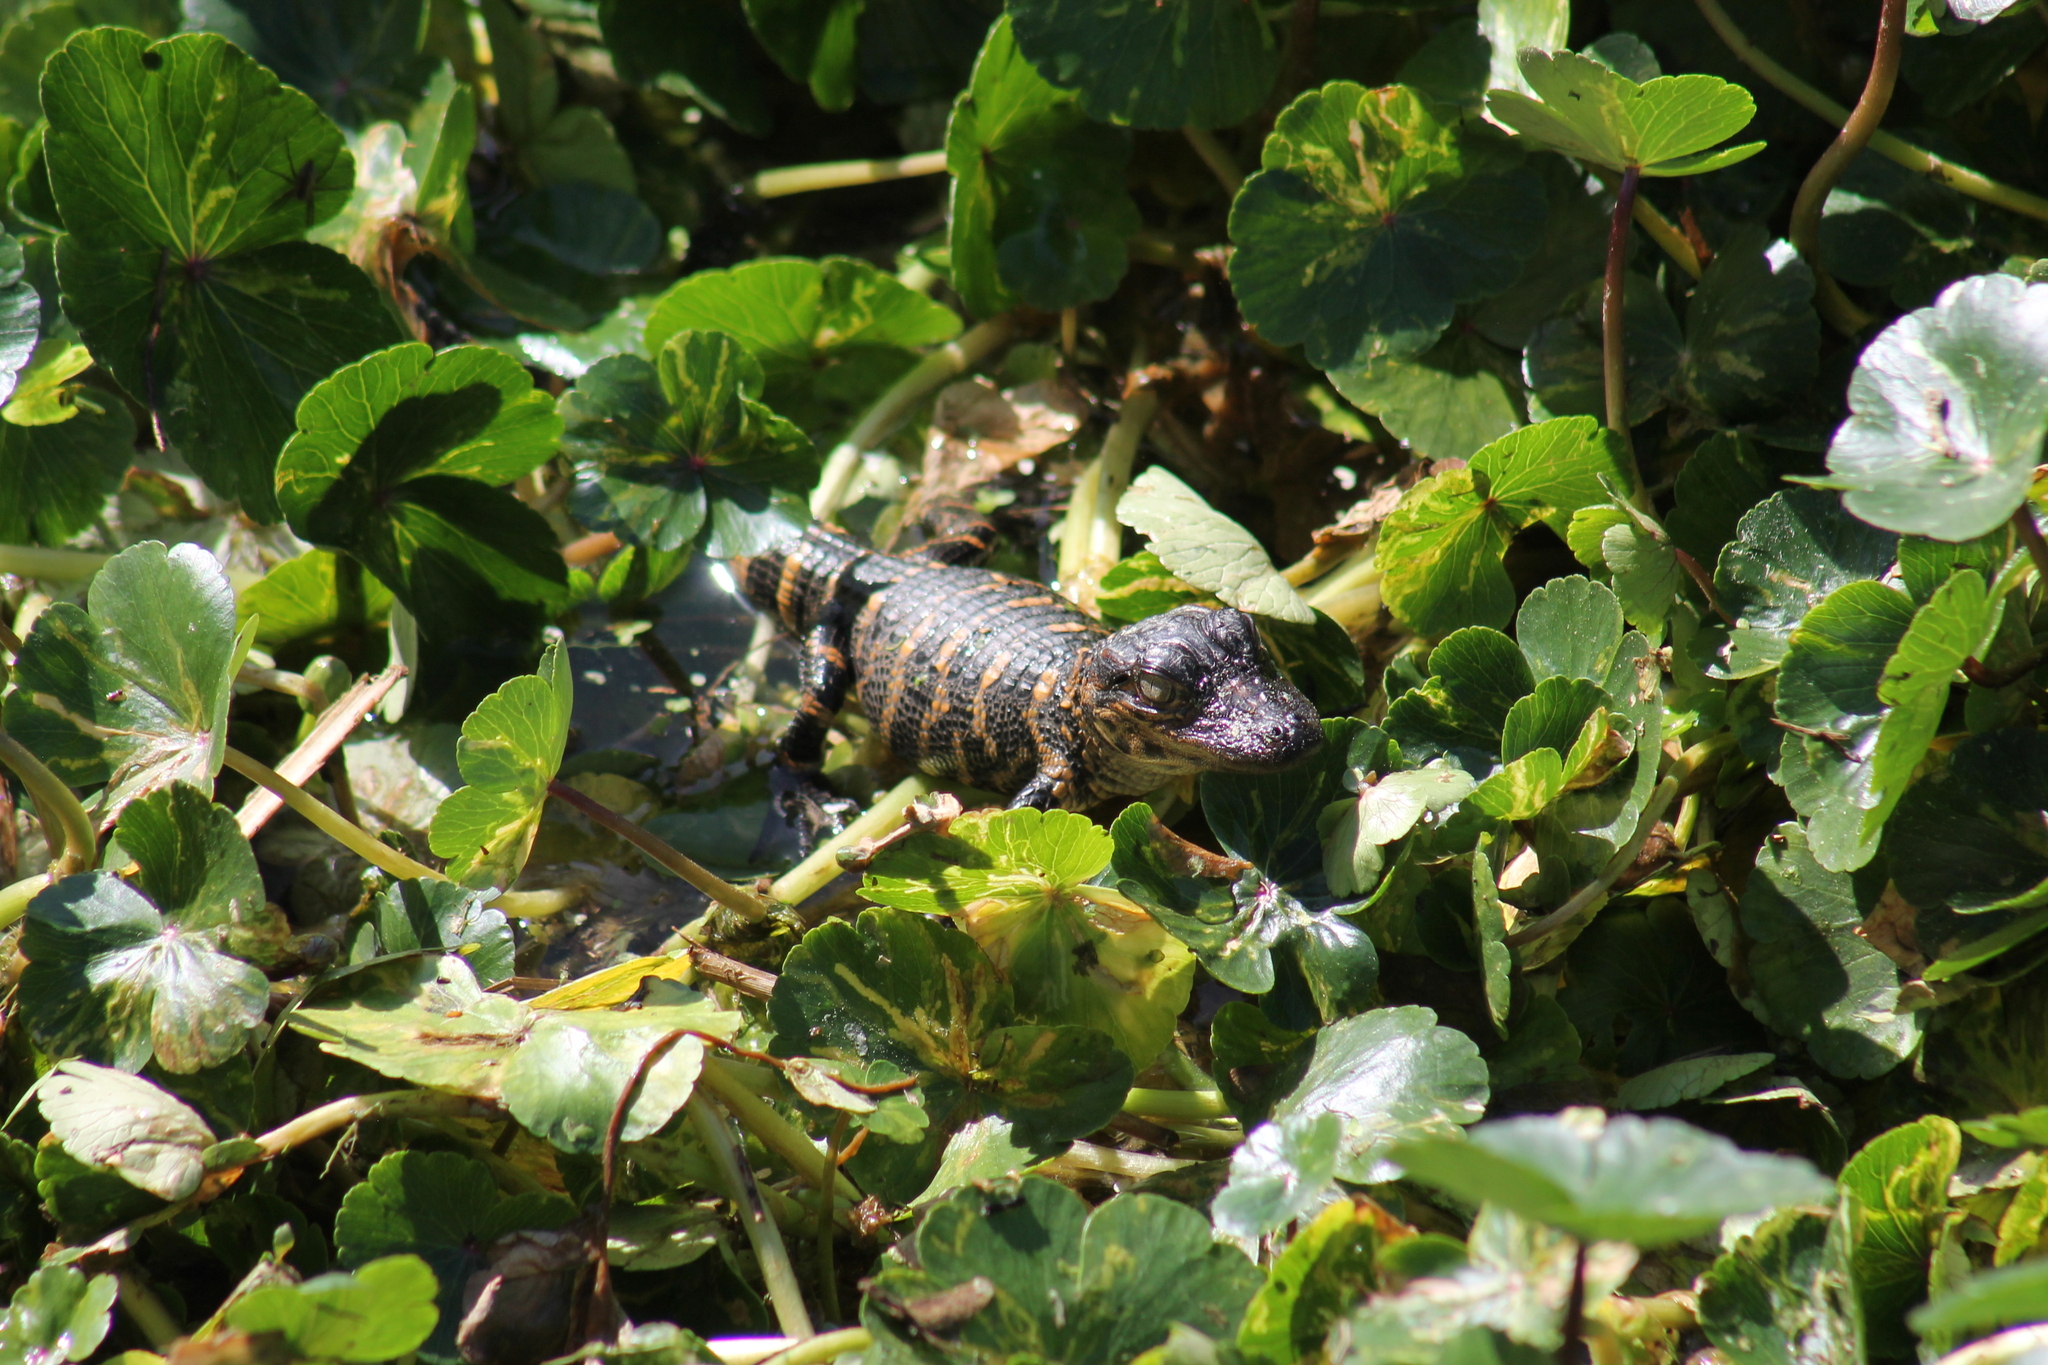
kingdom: Animalia
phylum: Chordata
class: Crocodylia
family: Alligatoridae
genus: Alligator
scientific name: Alligator mississippiensis
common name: American alligator
